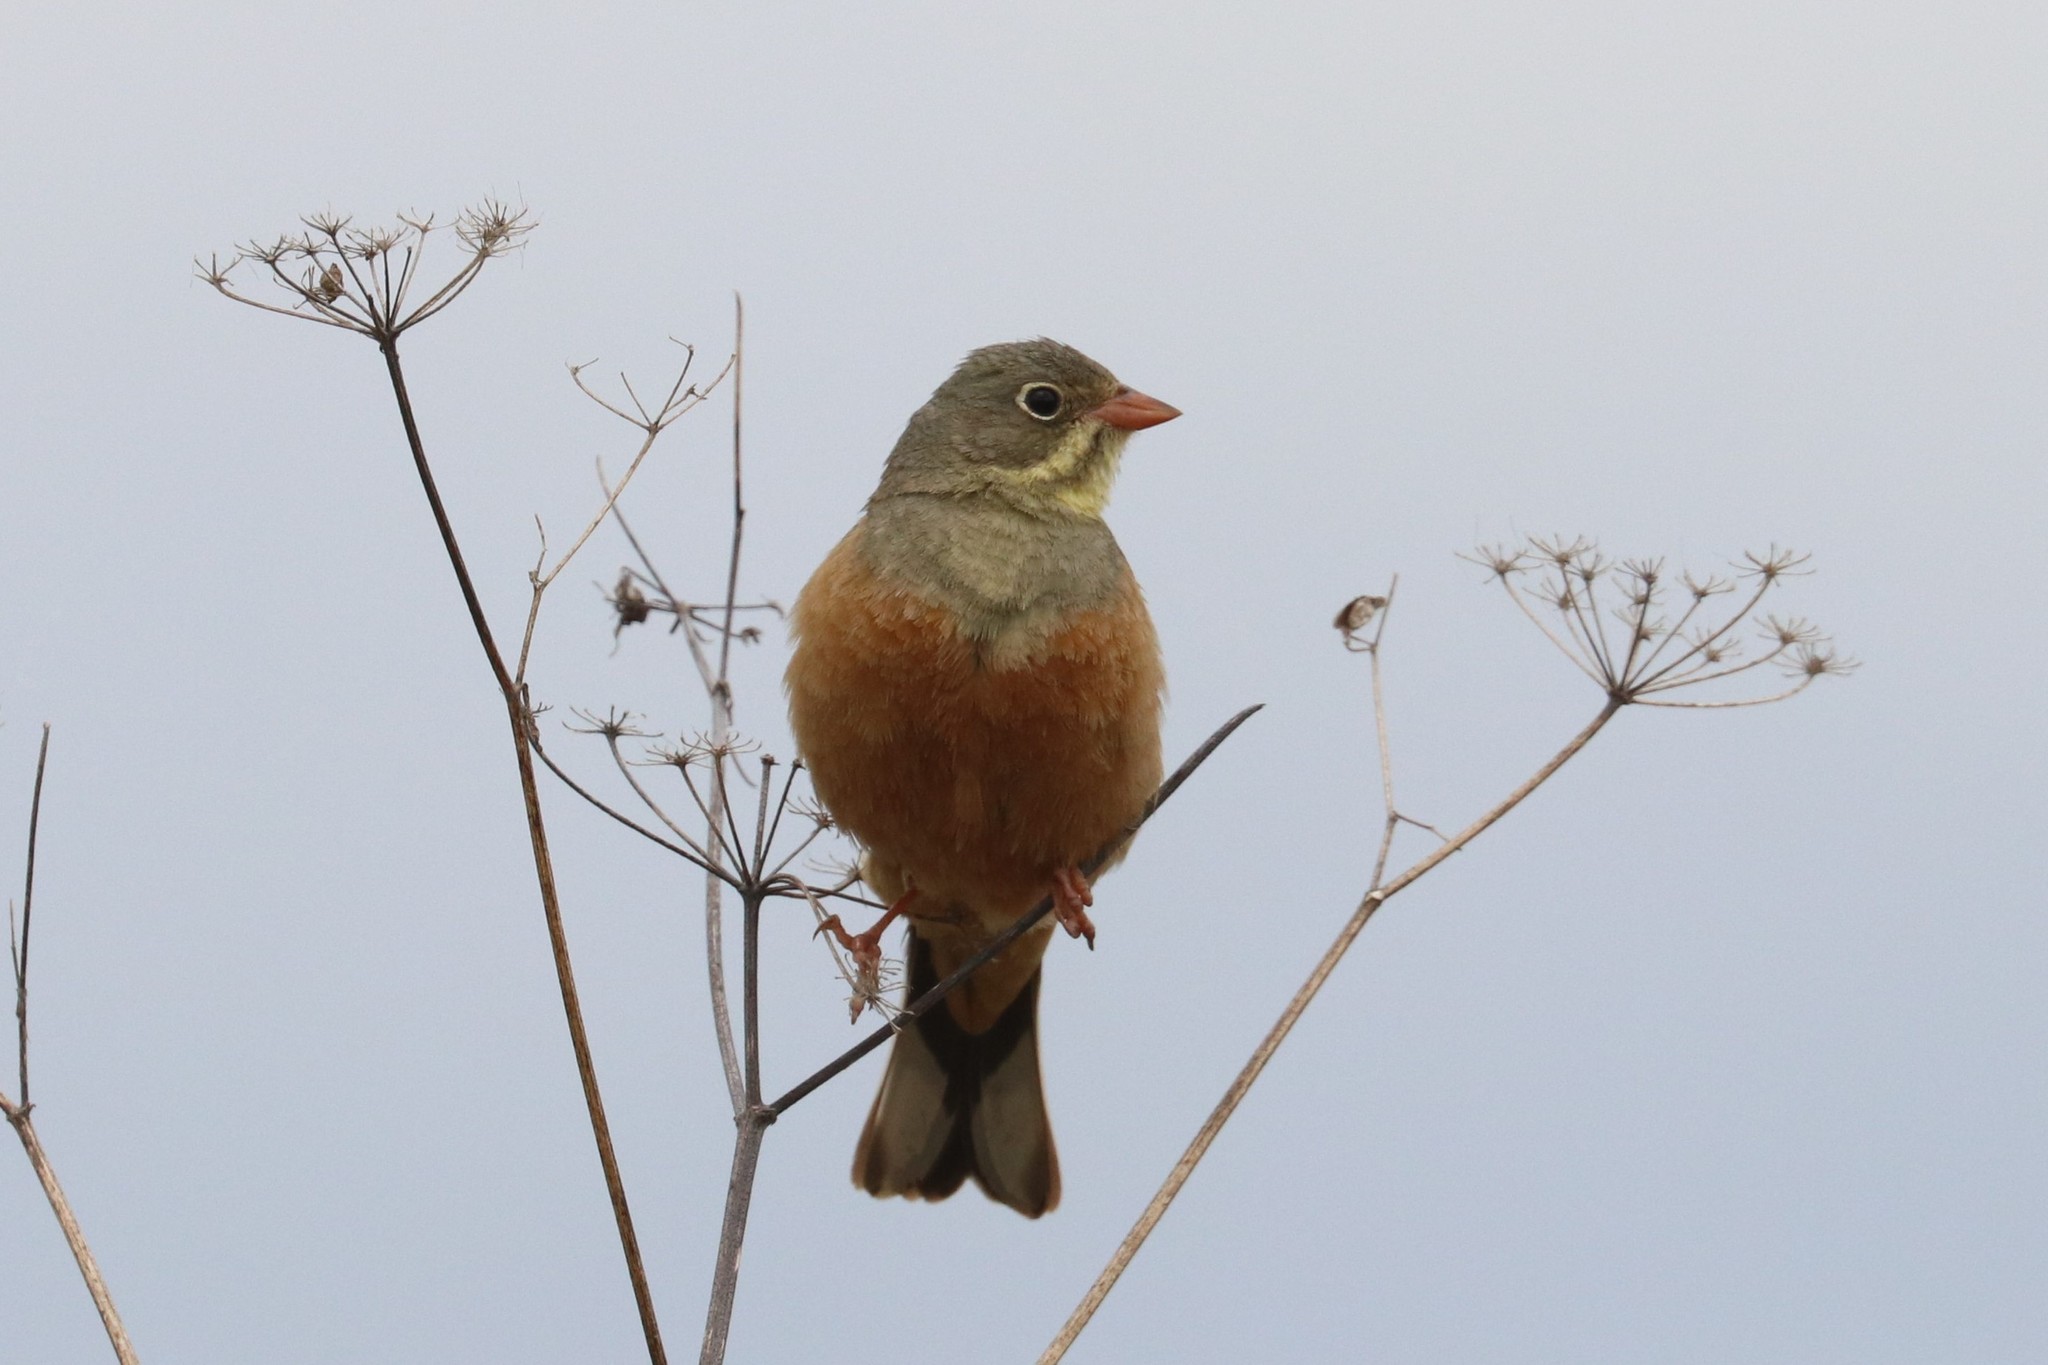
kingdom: Animalia
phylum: Chordata
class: Aves
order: Passeriformes
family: Emberizidae
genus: Emberiza
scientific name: Emberiza hortulana
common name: Ortolan bunting
